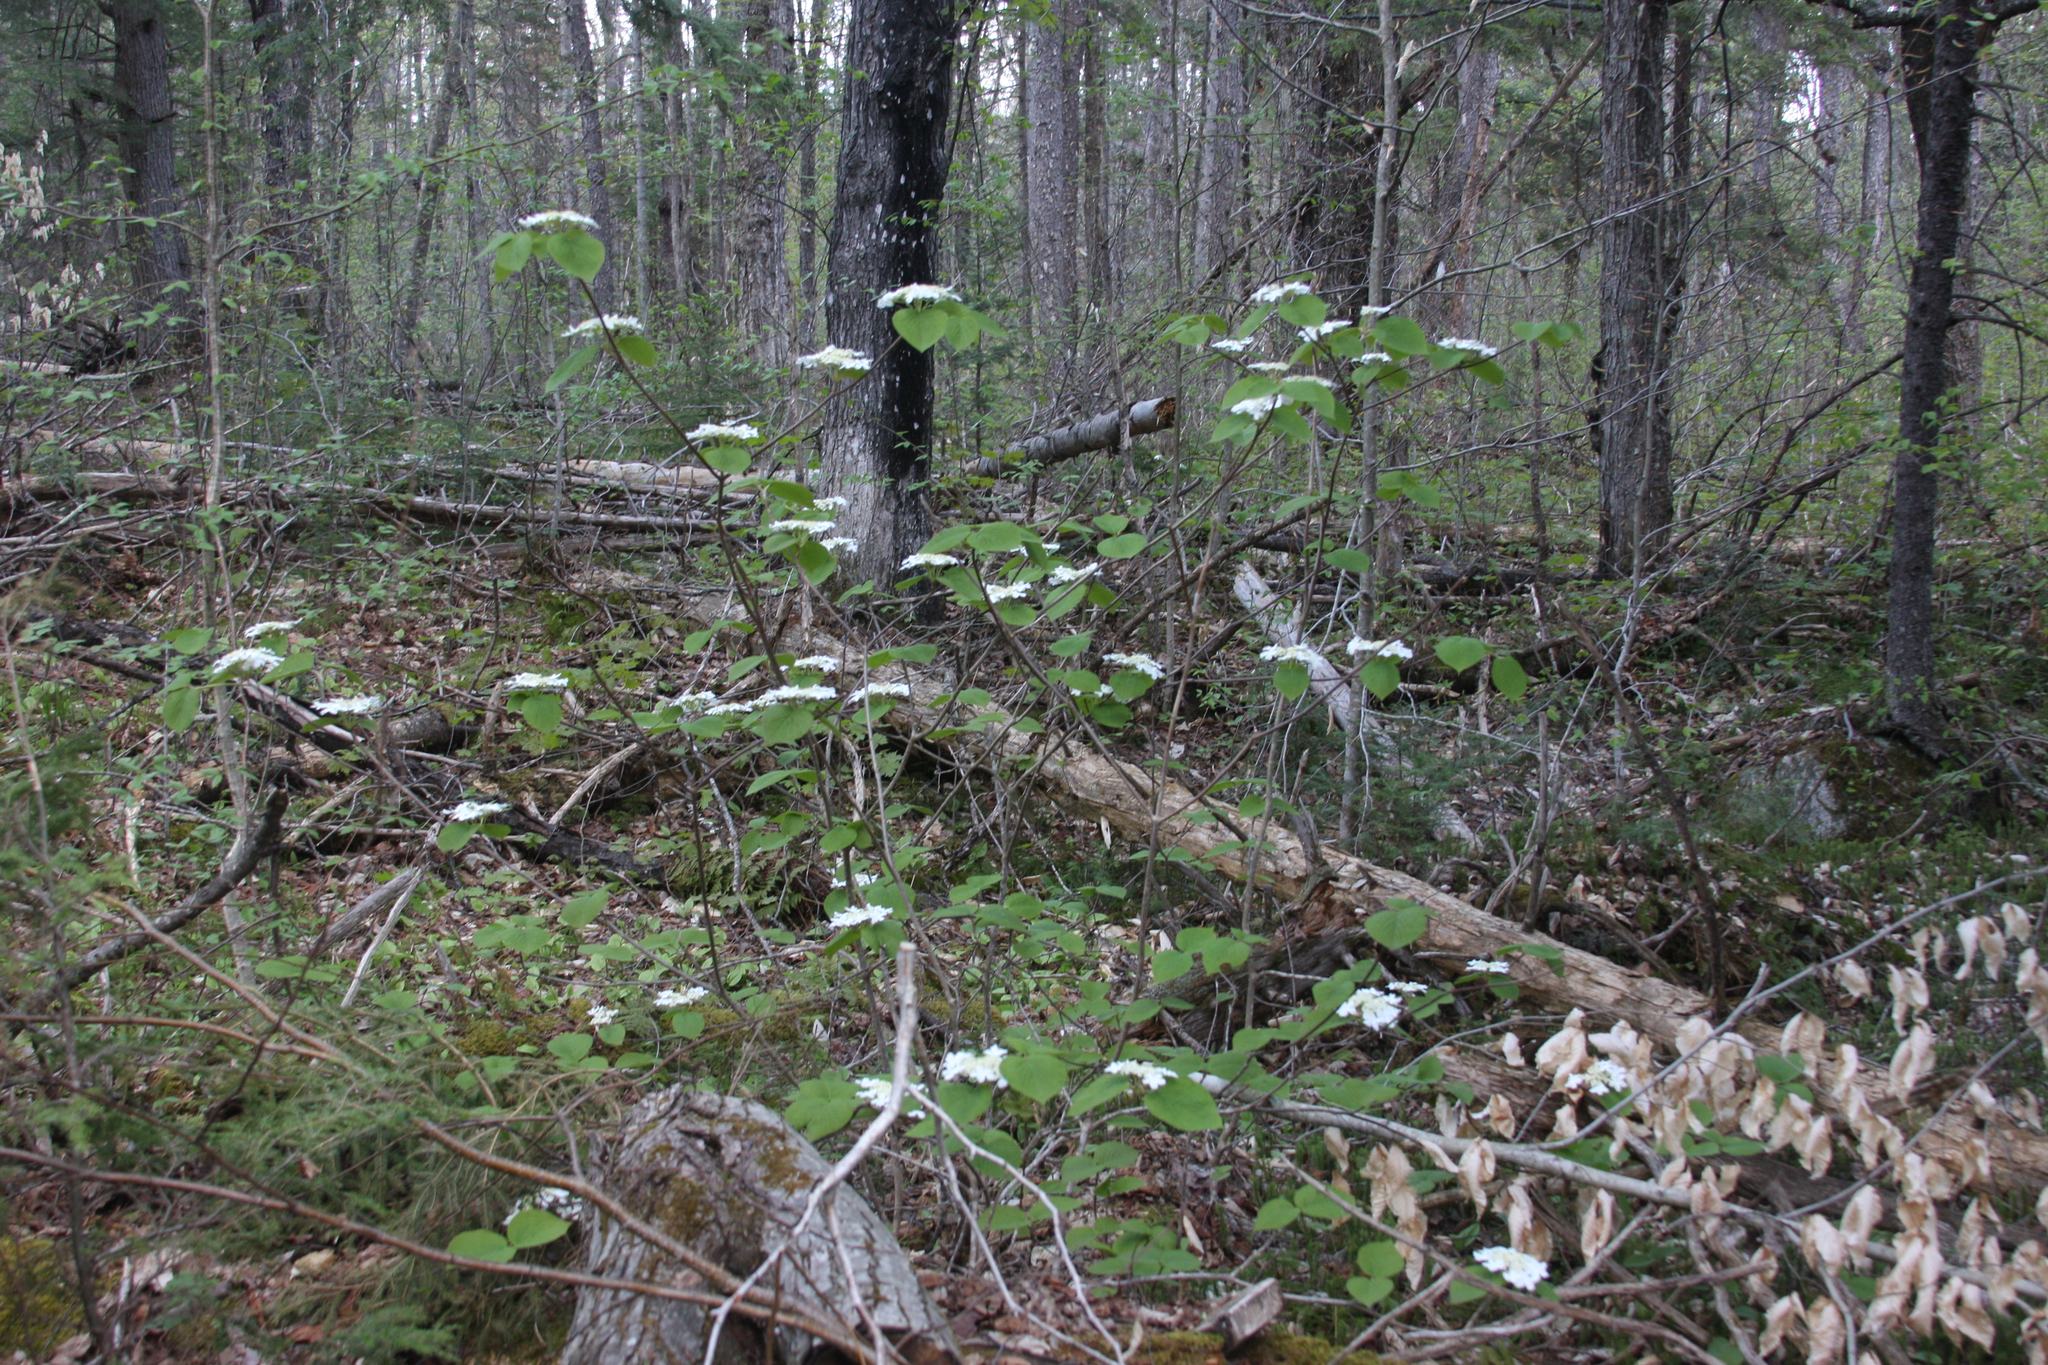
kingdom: Plantae
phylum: Tracheophyta
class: Magnoliopsida
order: Dipsacales
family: Viburnaceae
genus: Viburnum
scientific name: Viburnum lantanoides
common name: Hobblebush
